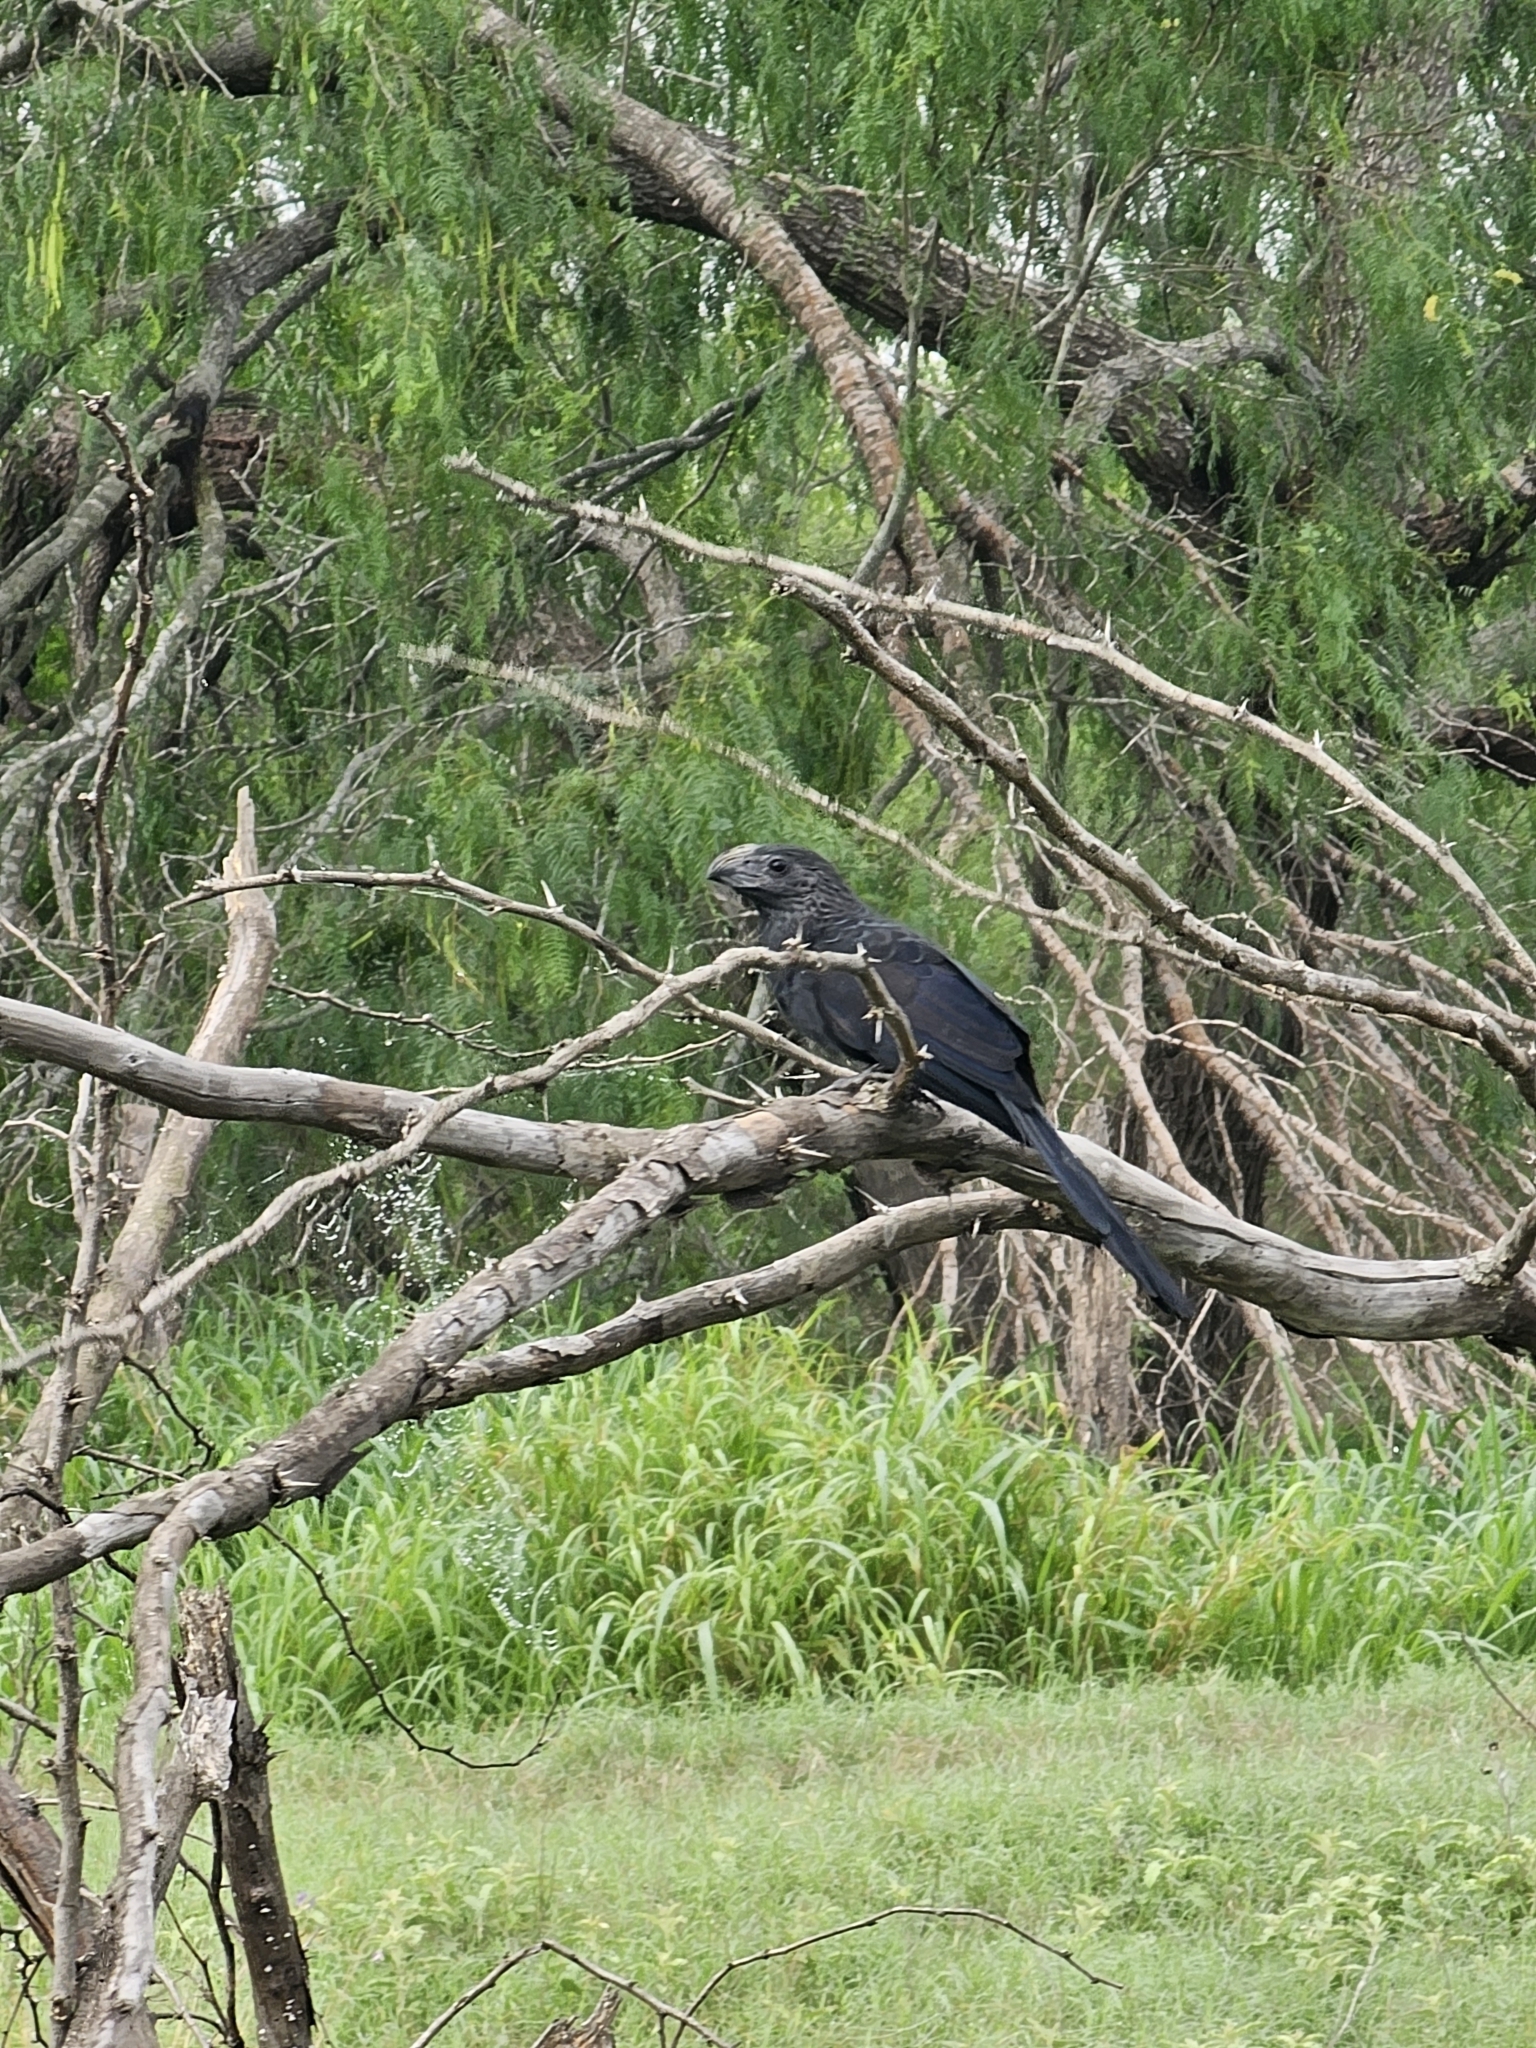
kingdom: Animalia
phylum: Chordata
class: Aves
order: Cuculiformes
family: Cuculidae
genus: Crotophaga
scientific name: Crotophaga sulcirostris
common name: Groove-billed ani
